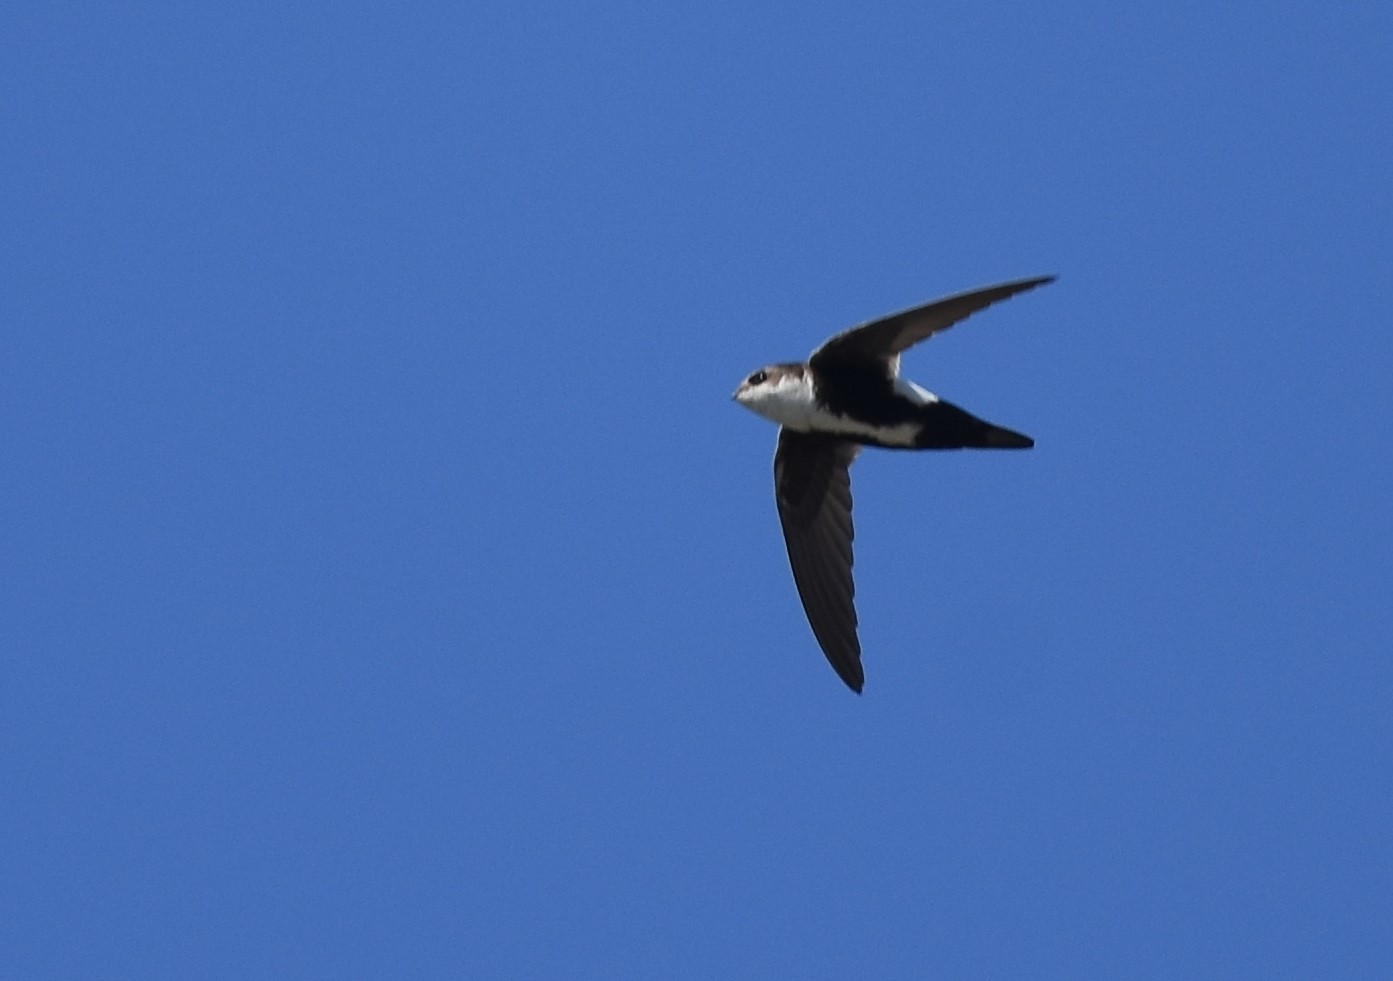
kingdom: Animalia
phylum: Chordata
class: Aves
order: Apodiformes
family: Apodidae
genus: Aeronautes
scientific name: Aeronautes saxatalis
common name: White-throated swift
